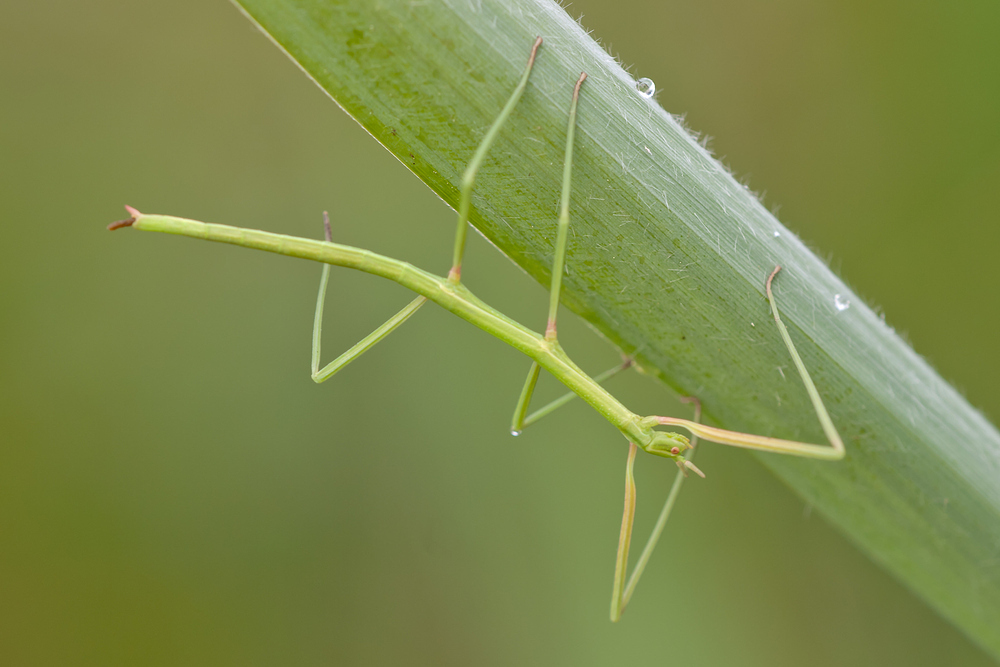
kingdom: Animalia
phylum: Arthropoda
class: Insecta
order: Phasmida
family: Bacillidae
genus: Clonopsis
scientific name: Clonopsis gallica
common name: French stick insect
